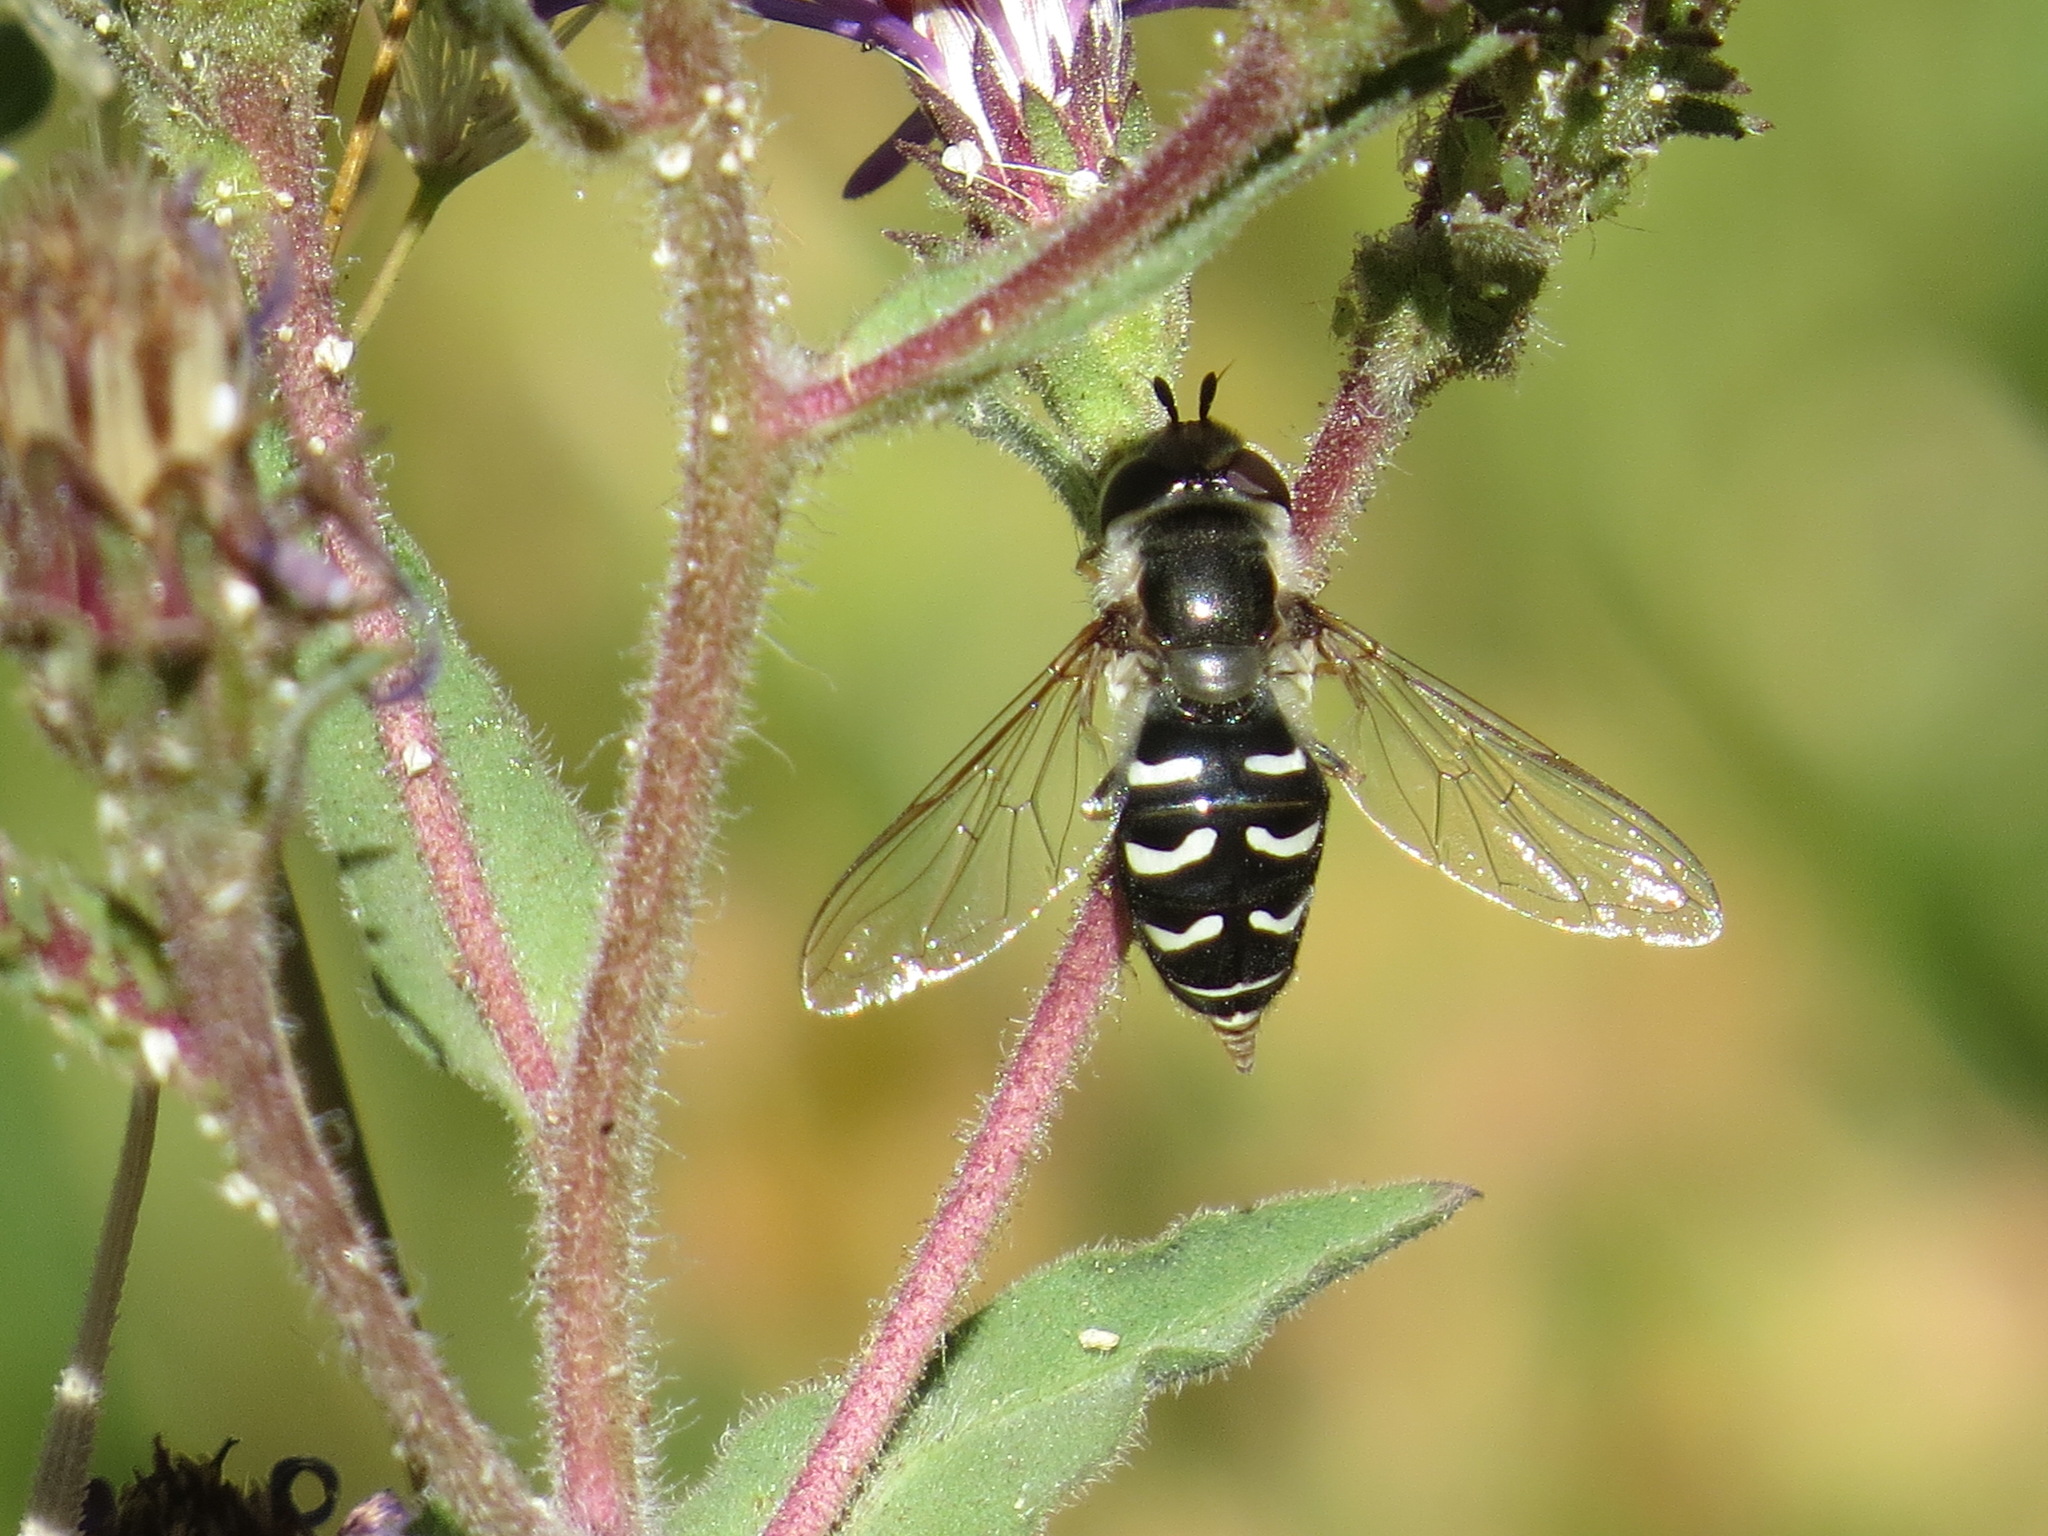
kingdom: Animalia
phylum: Arthropoda
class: Insecta
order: Diptera
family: Syrphidae
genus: Scaeva
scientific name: Scaeva affinis
